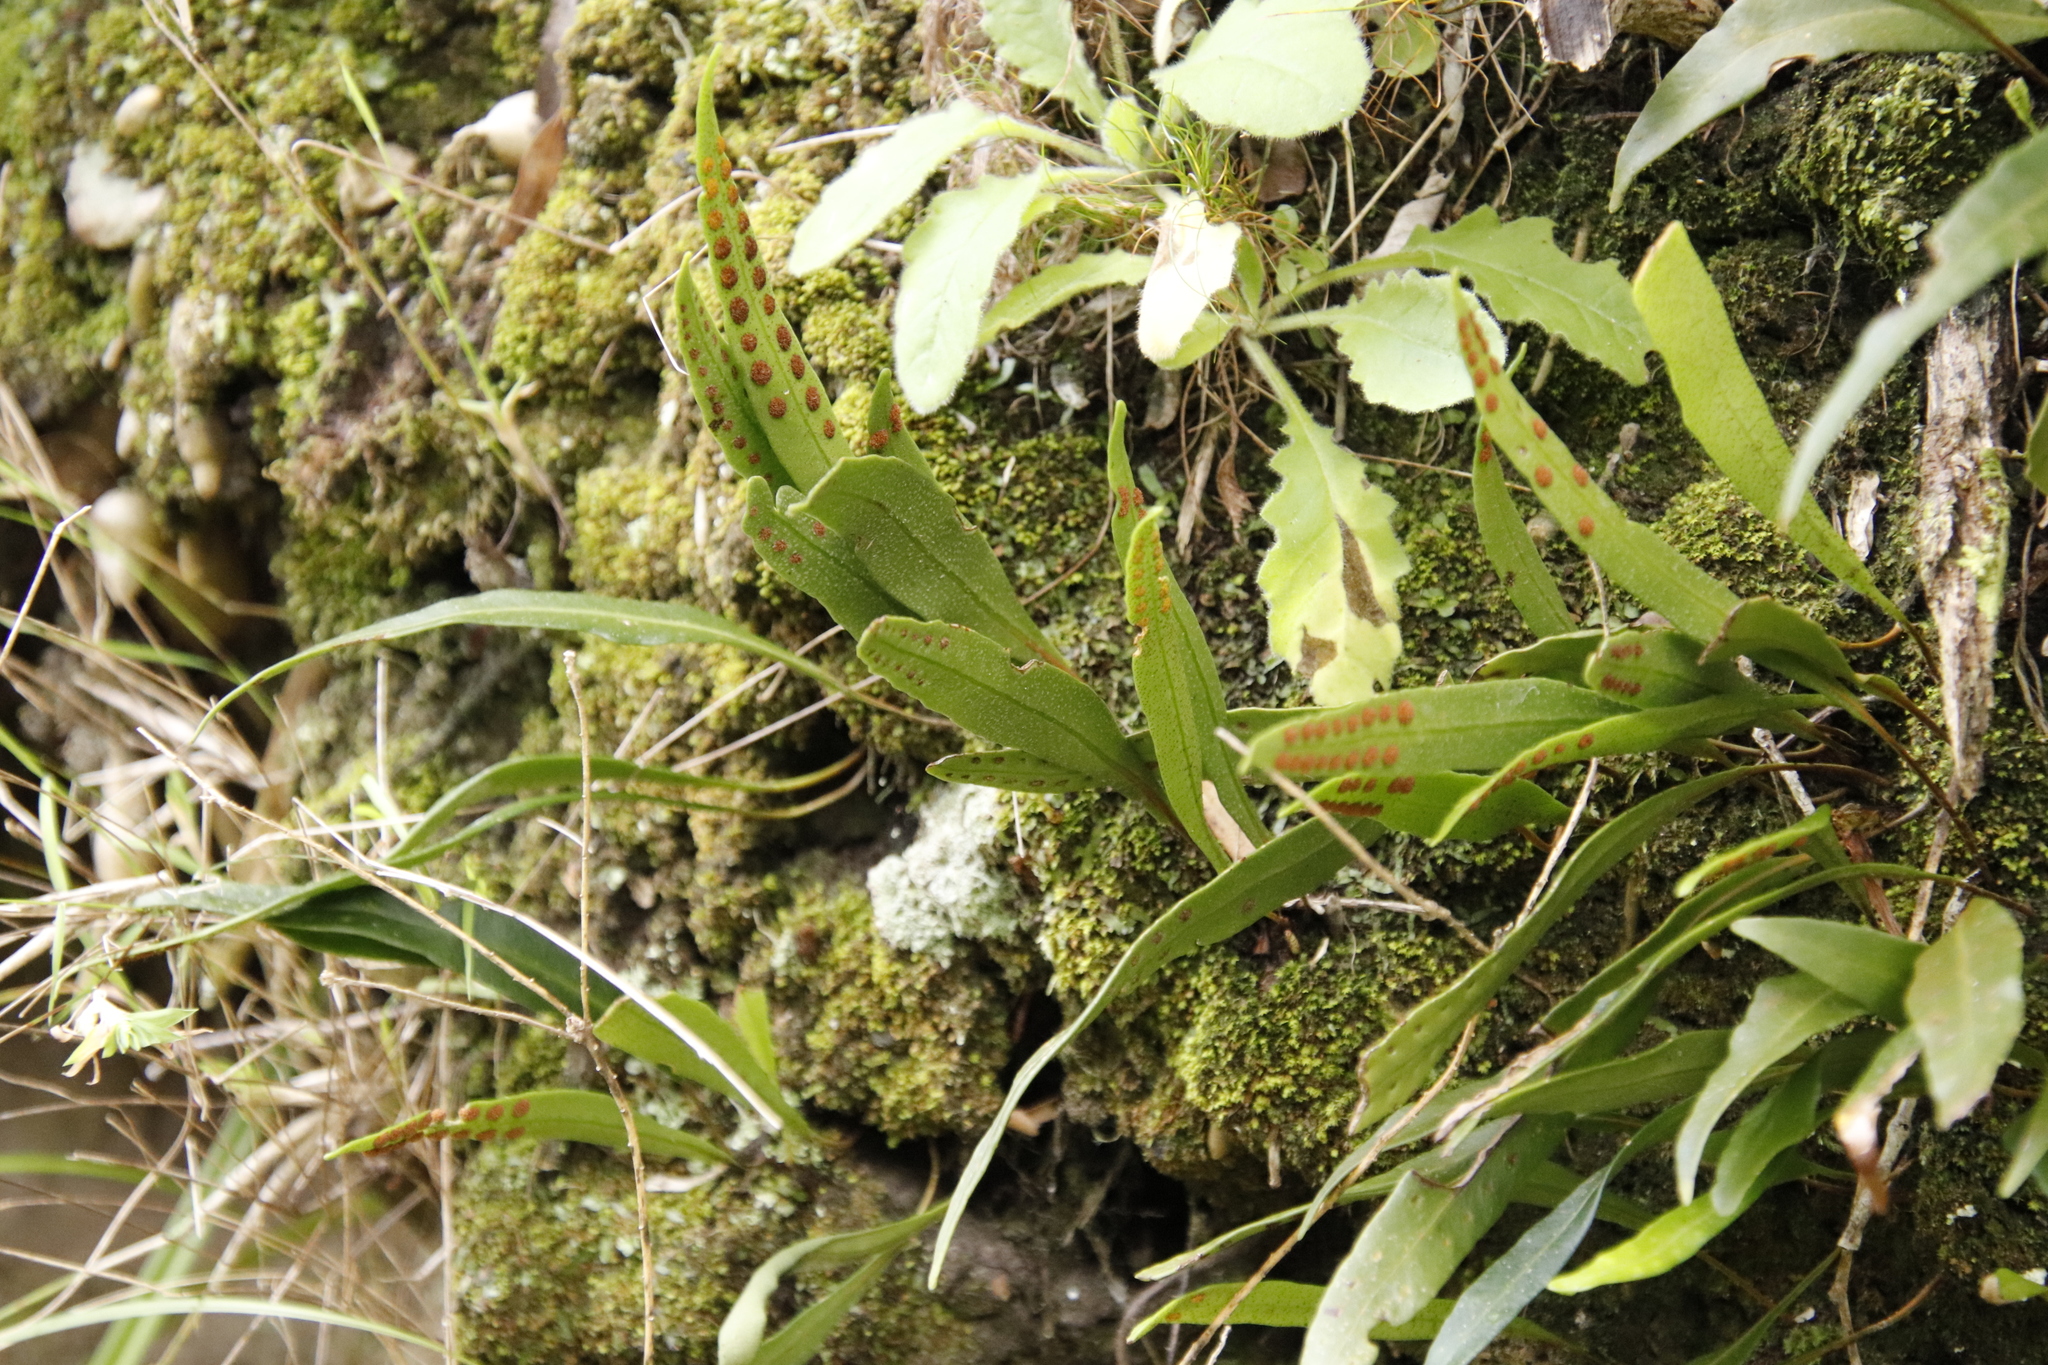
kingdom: Plantae
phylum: Tracheophyta
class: Polypodiopsida
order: Polypodiales
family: Polypodiaceae
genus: Pleopeltis
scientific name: Pleopeltis macrocarpa
